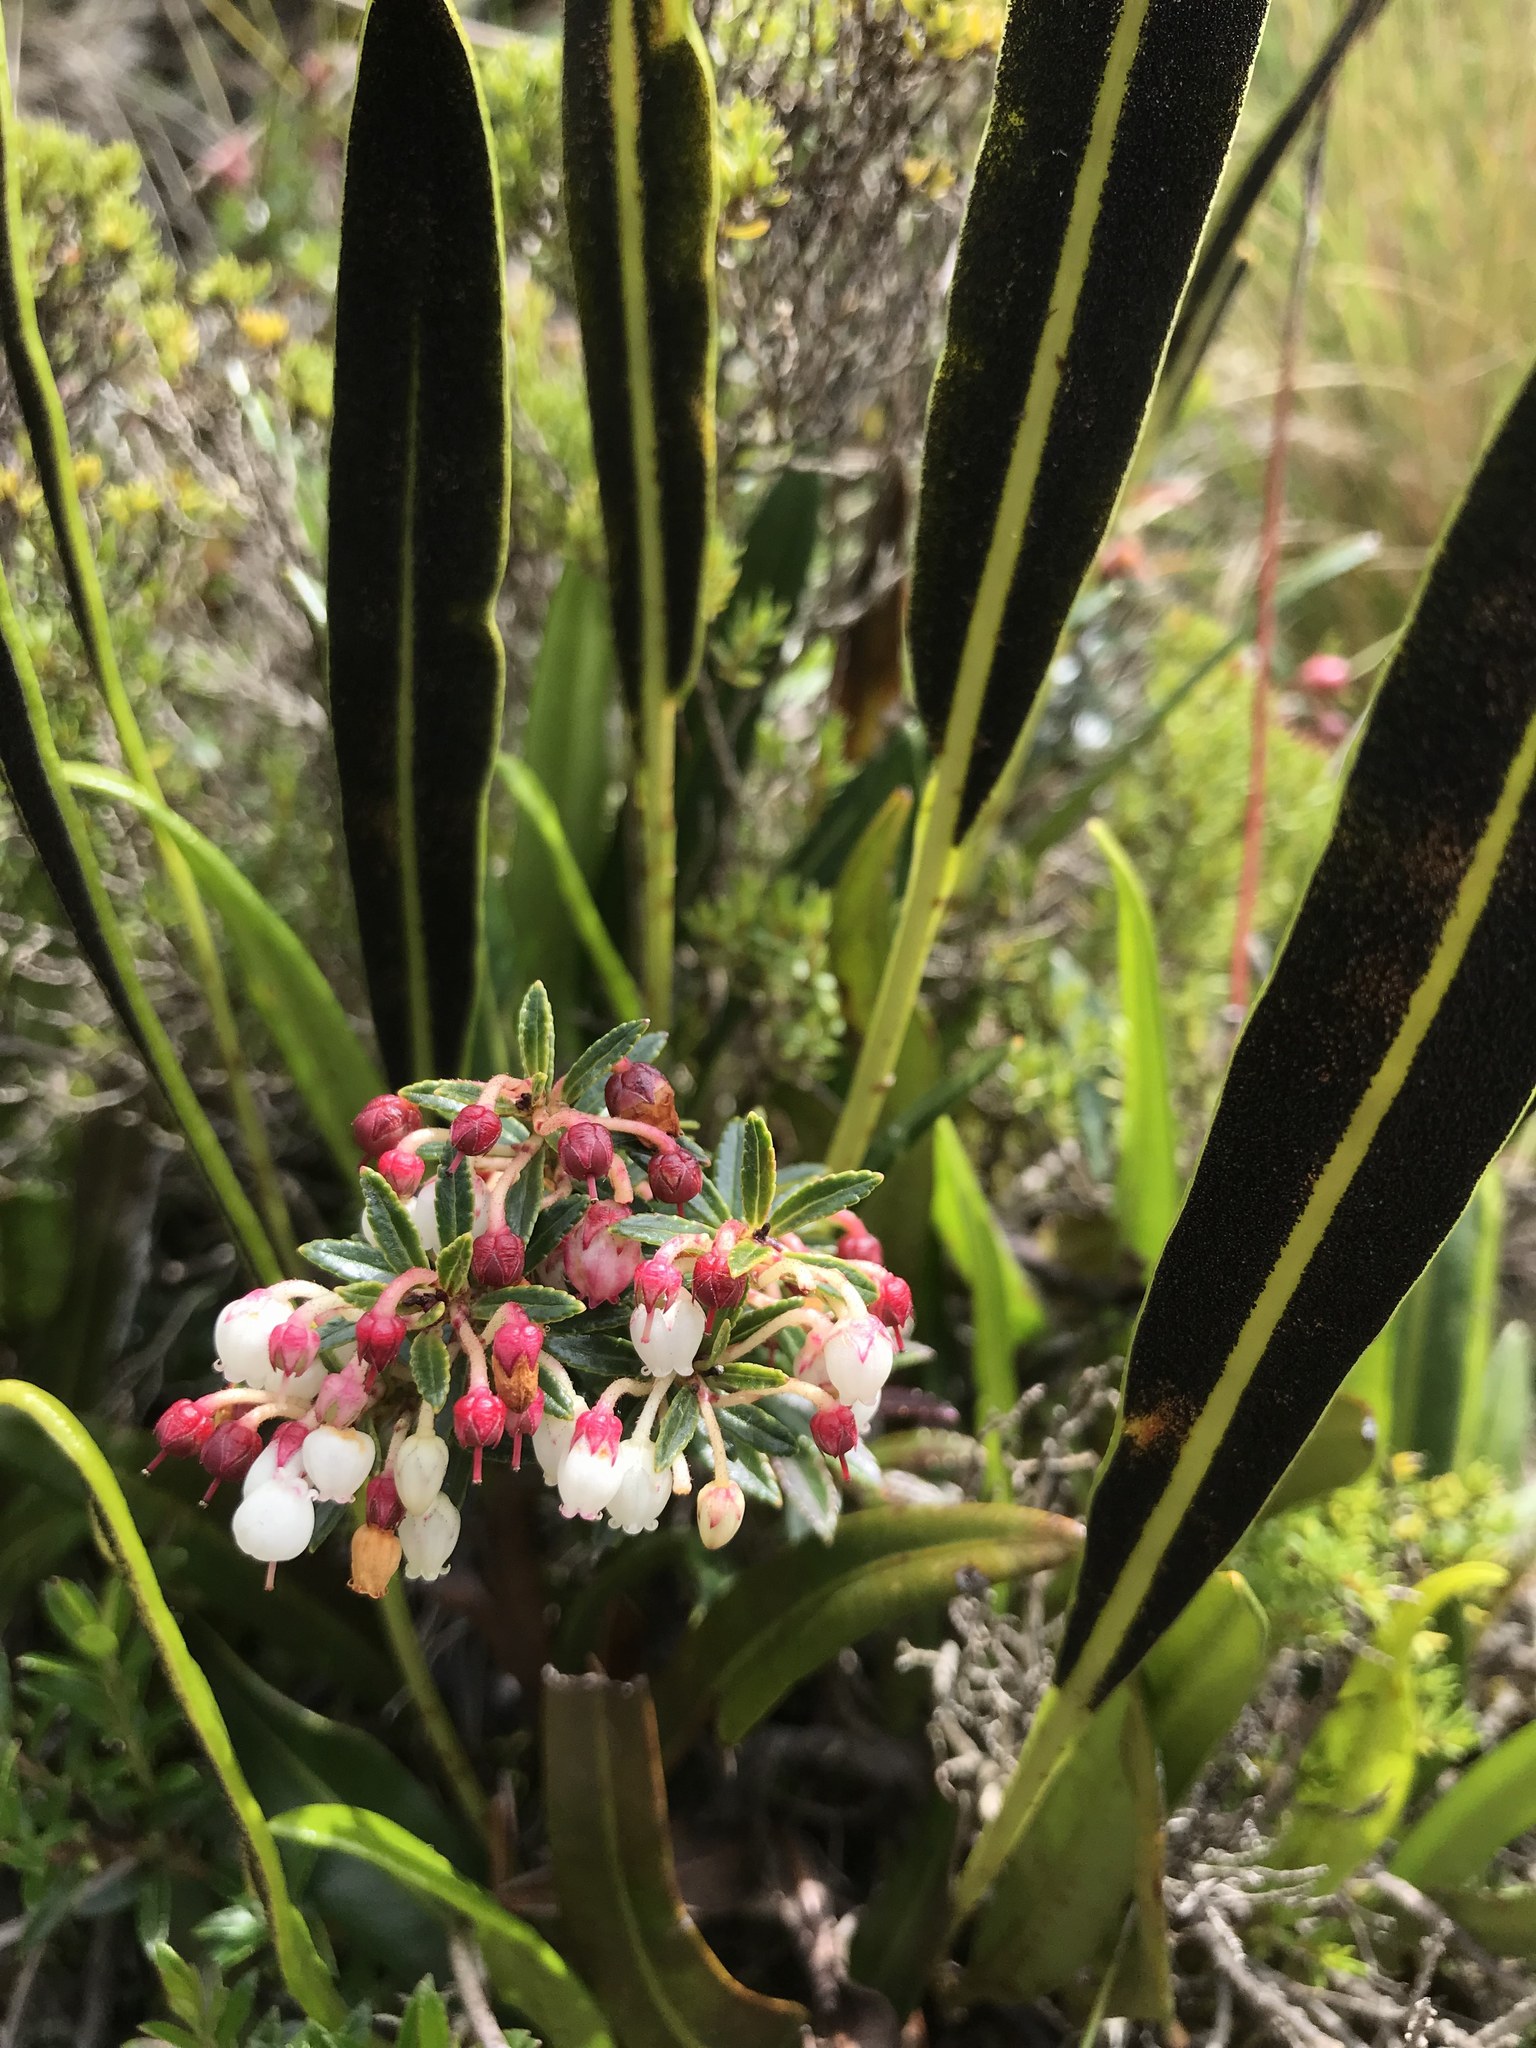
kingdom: Plantae
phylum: Tracheophyta
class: Magnoliopsida
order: Ericales
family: Ericaceae
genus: Gaultheria
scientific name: Gaultheria myrsinoides
